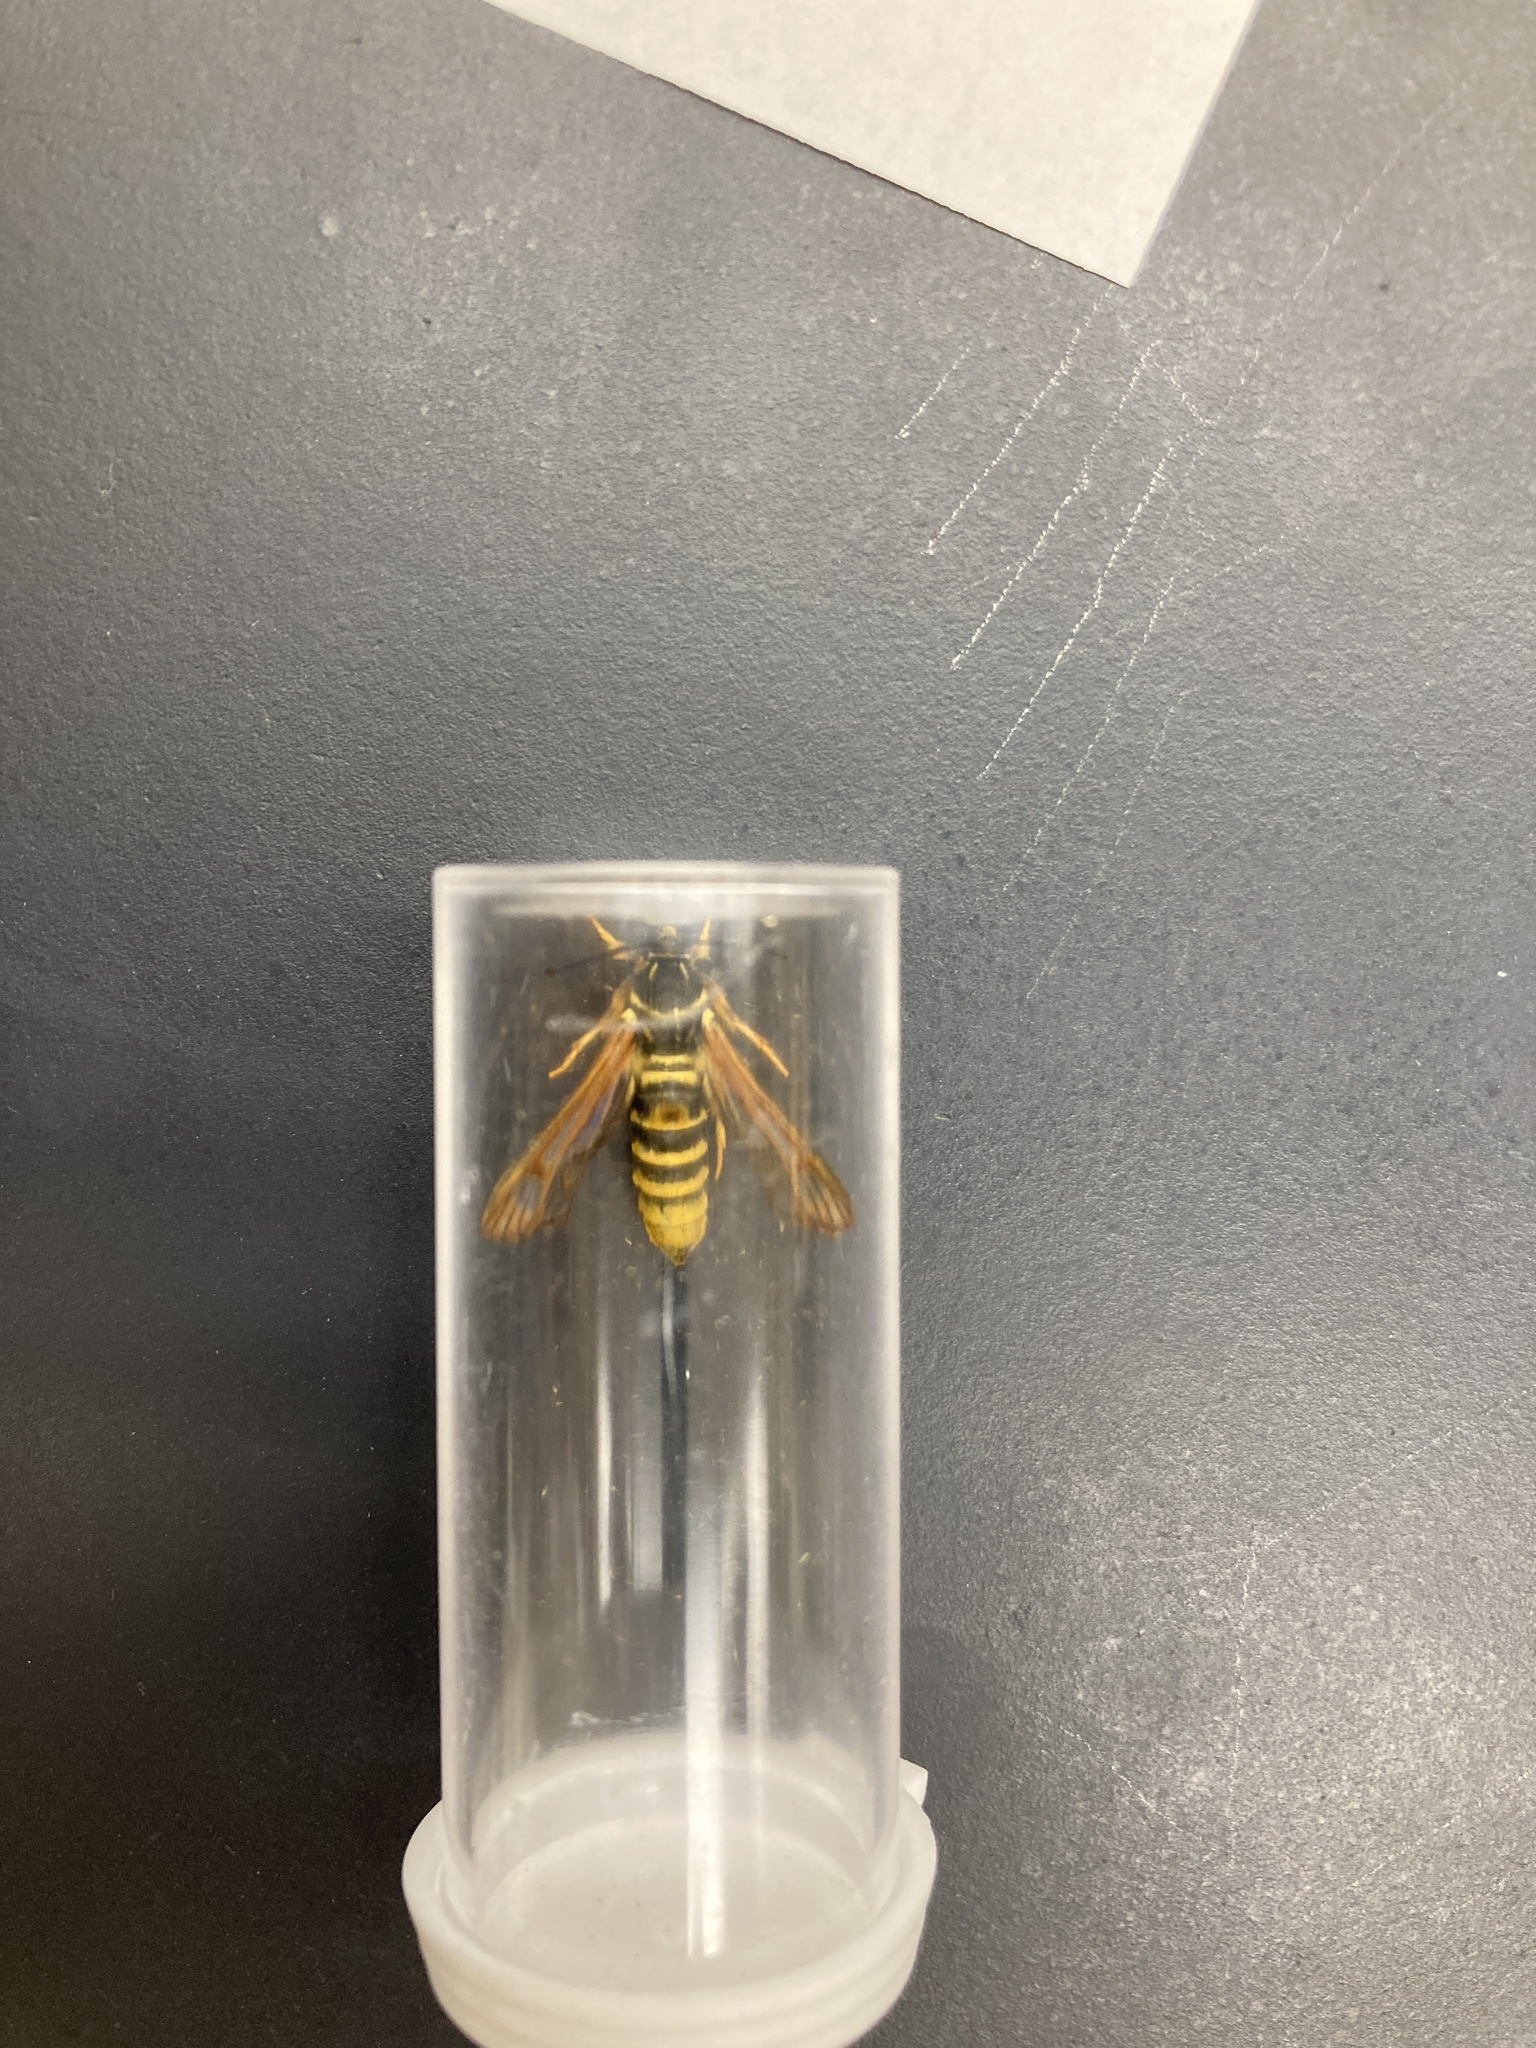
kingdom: Animalia
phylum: Arthropoda
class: Insecta
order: Lepidoptera
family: Sesiidae
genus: Pennisetia
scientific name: Pennisetia marginatum
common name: Raspberry crown borer
